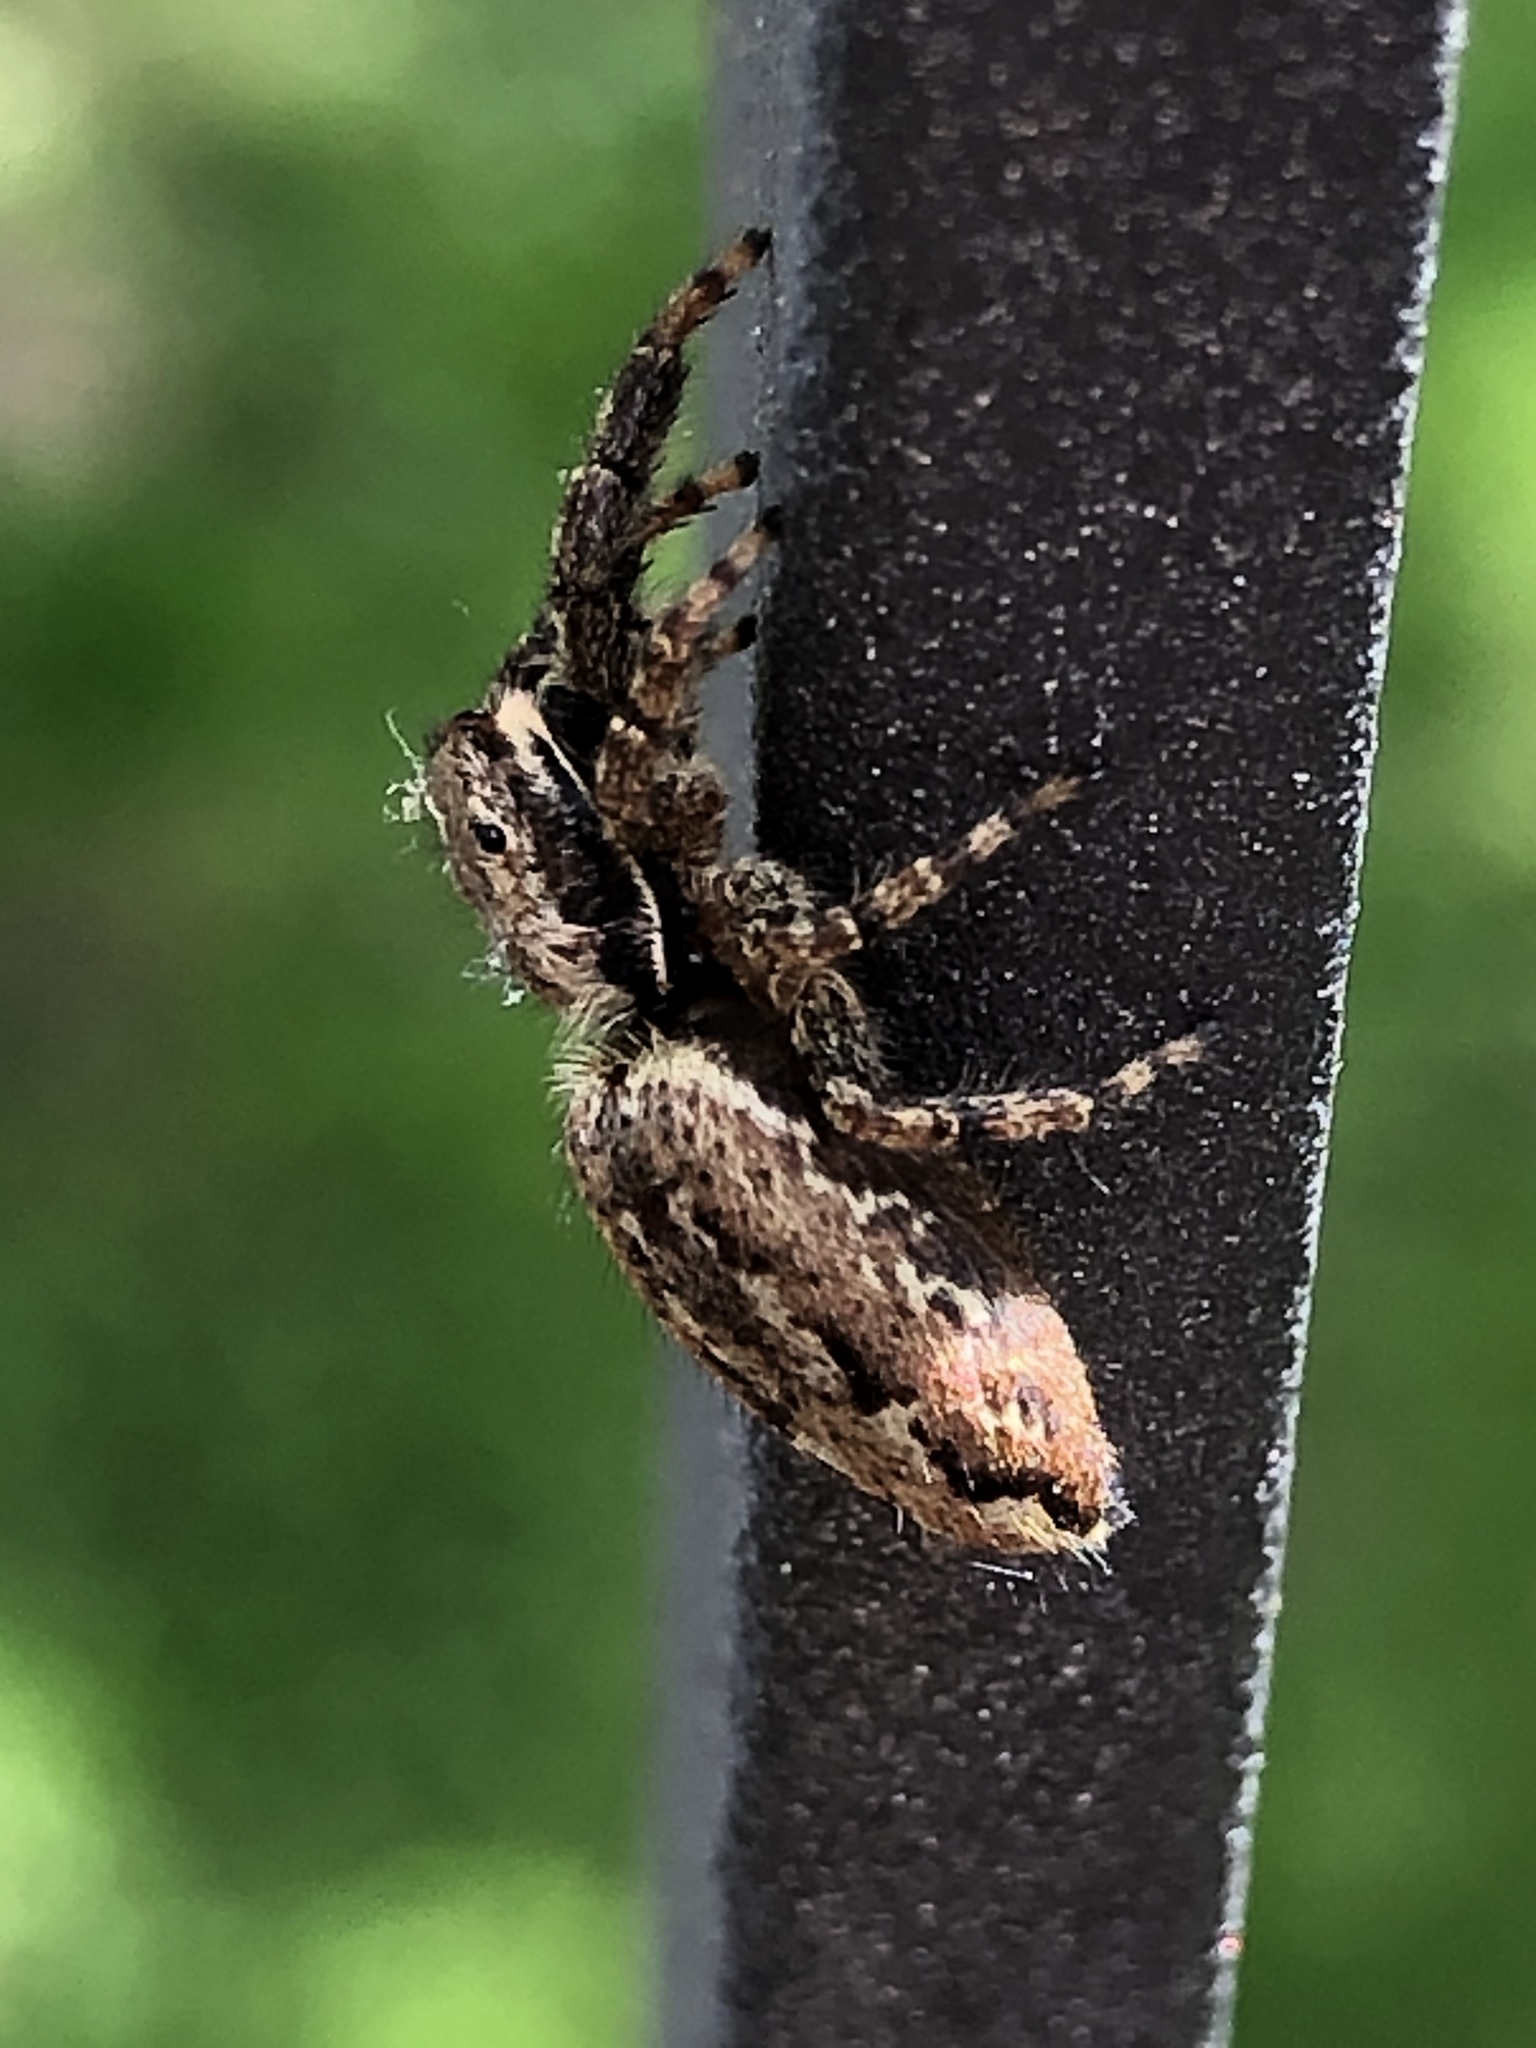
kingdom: Animalia
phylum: Arthropoda
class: Arachnida
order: Araneae
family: Salticidae
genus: Marpissa
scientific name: Marpissa muscosa
